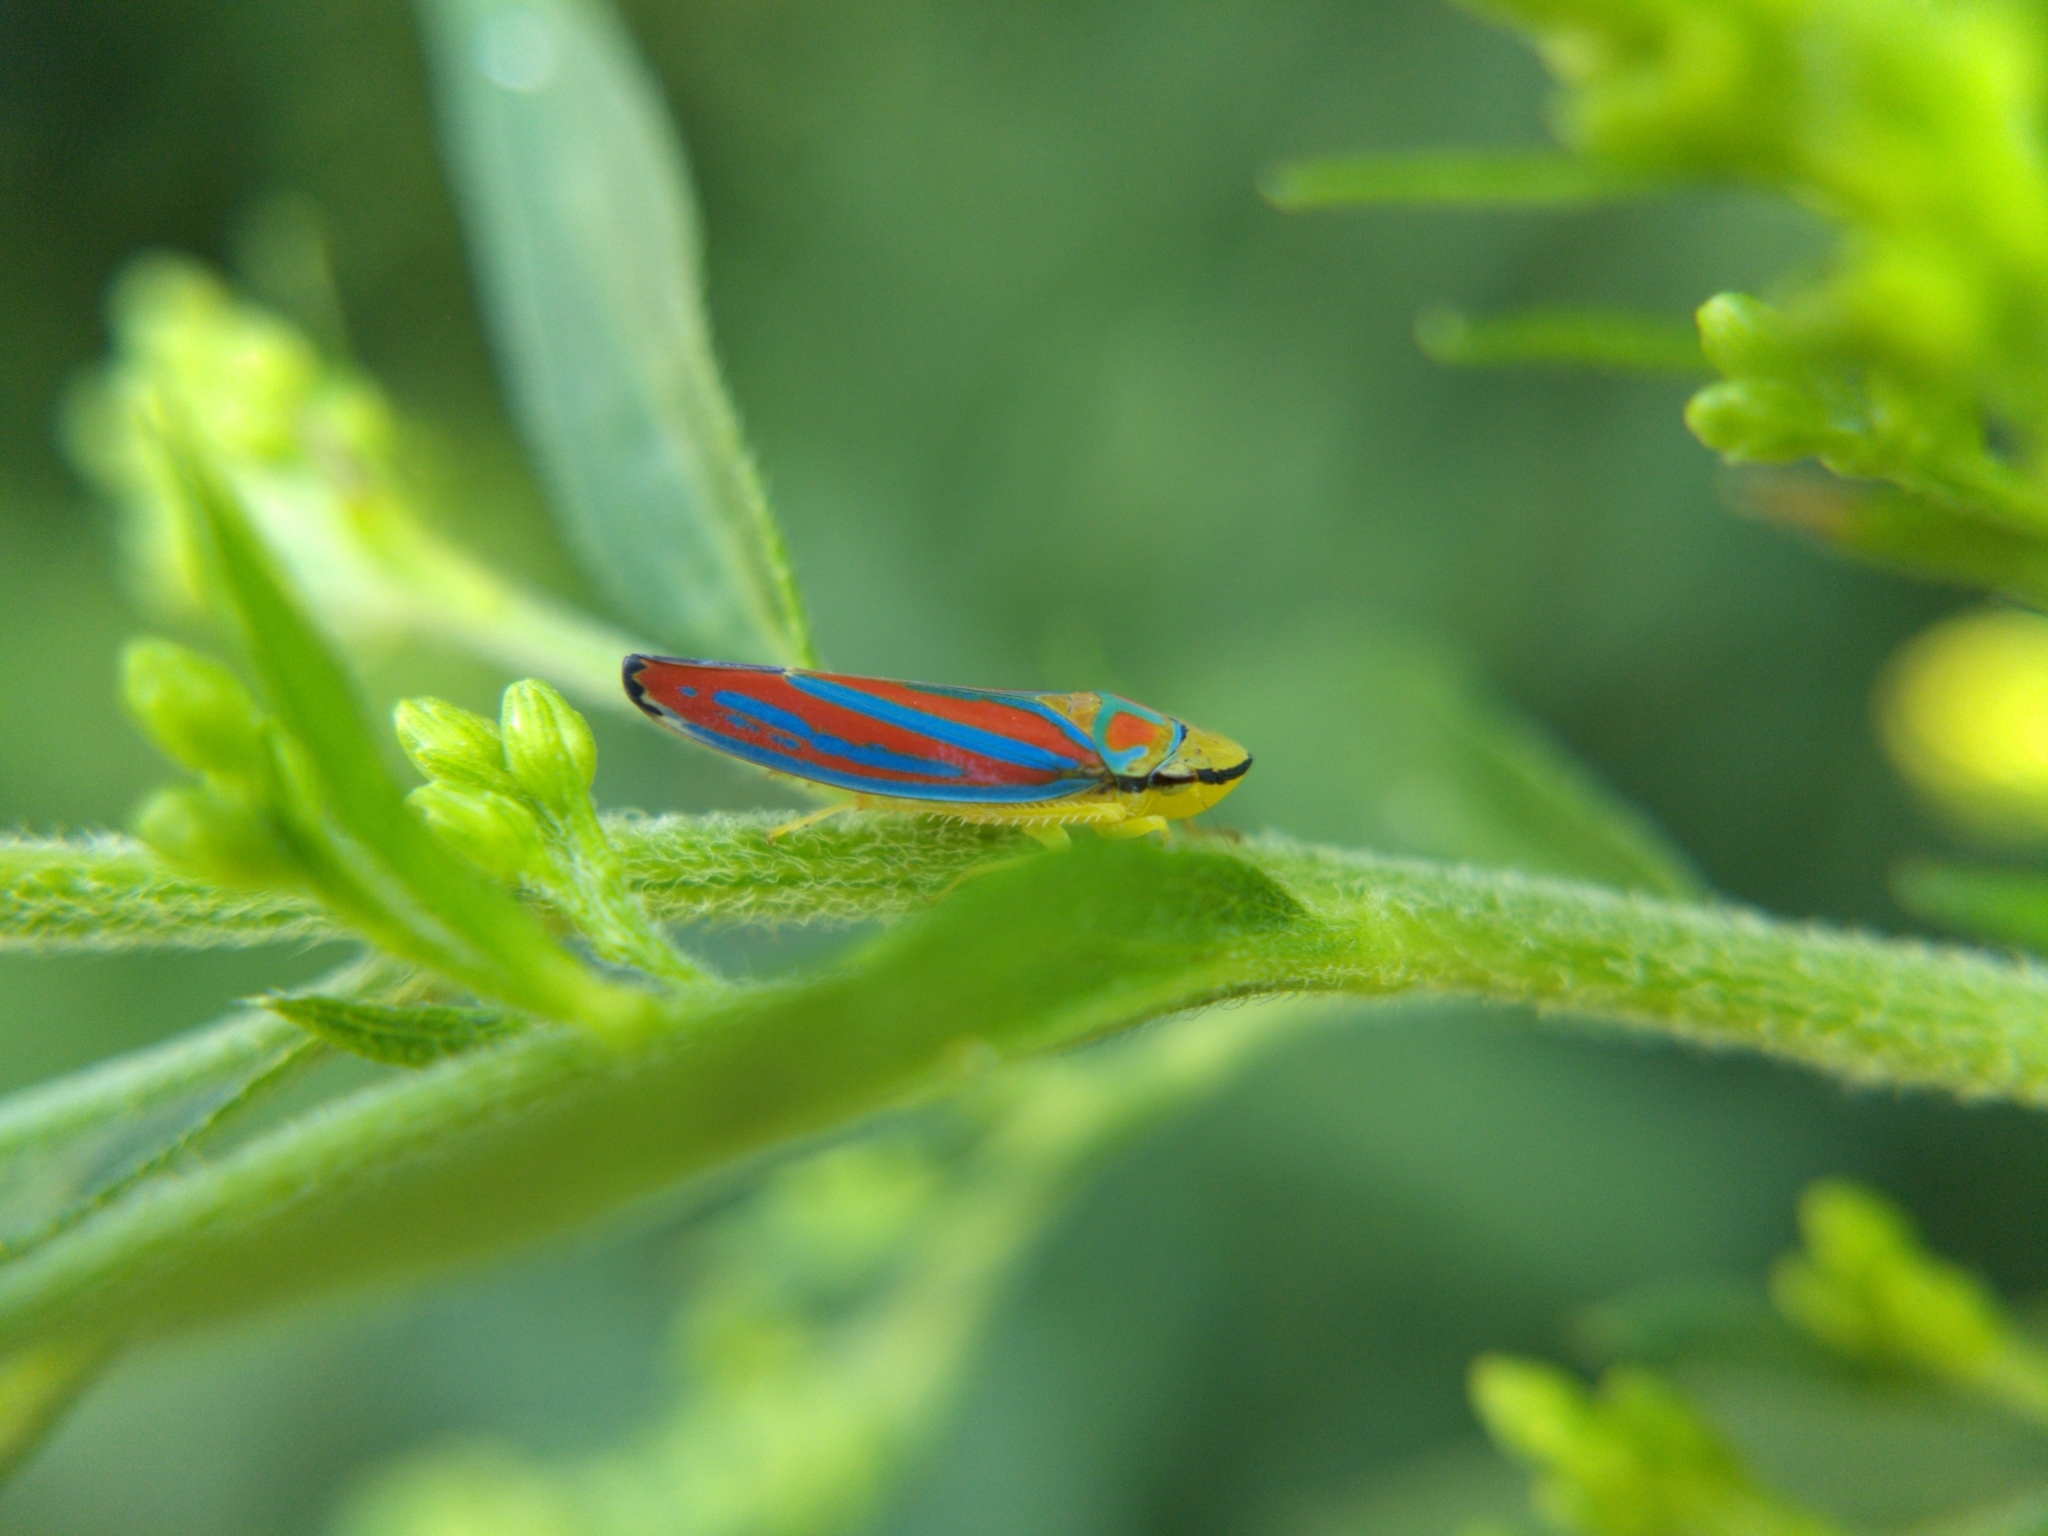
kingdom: Animalia
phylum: Arthropoda
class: Insecta
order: Hemiptera
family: Cicadellidae
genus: Graphocephala
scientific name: Graphocephala coccinea
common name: Candy-striped leafhopper
